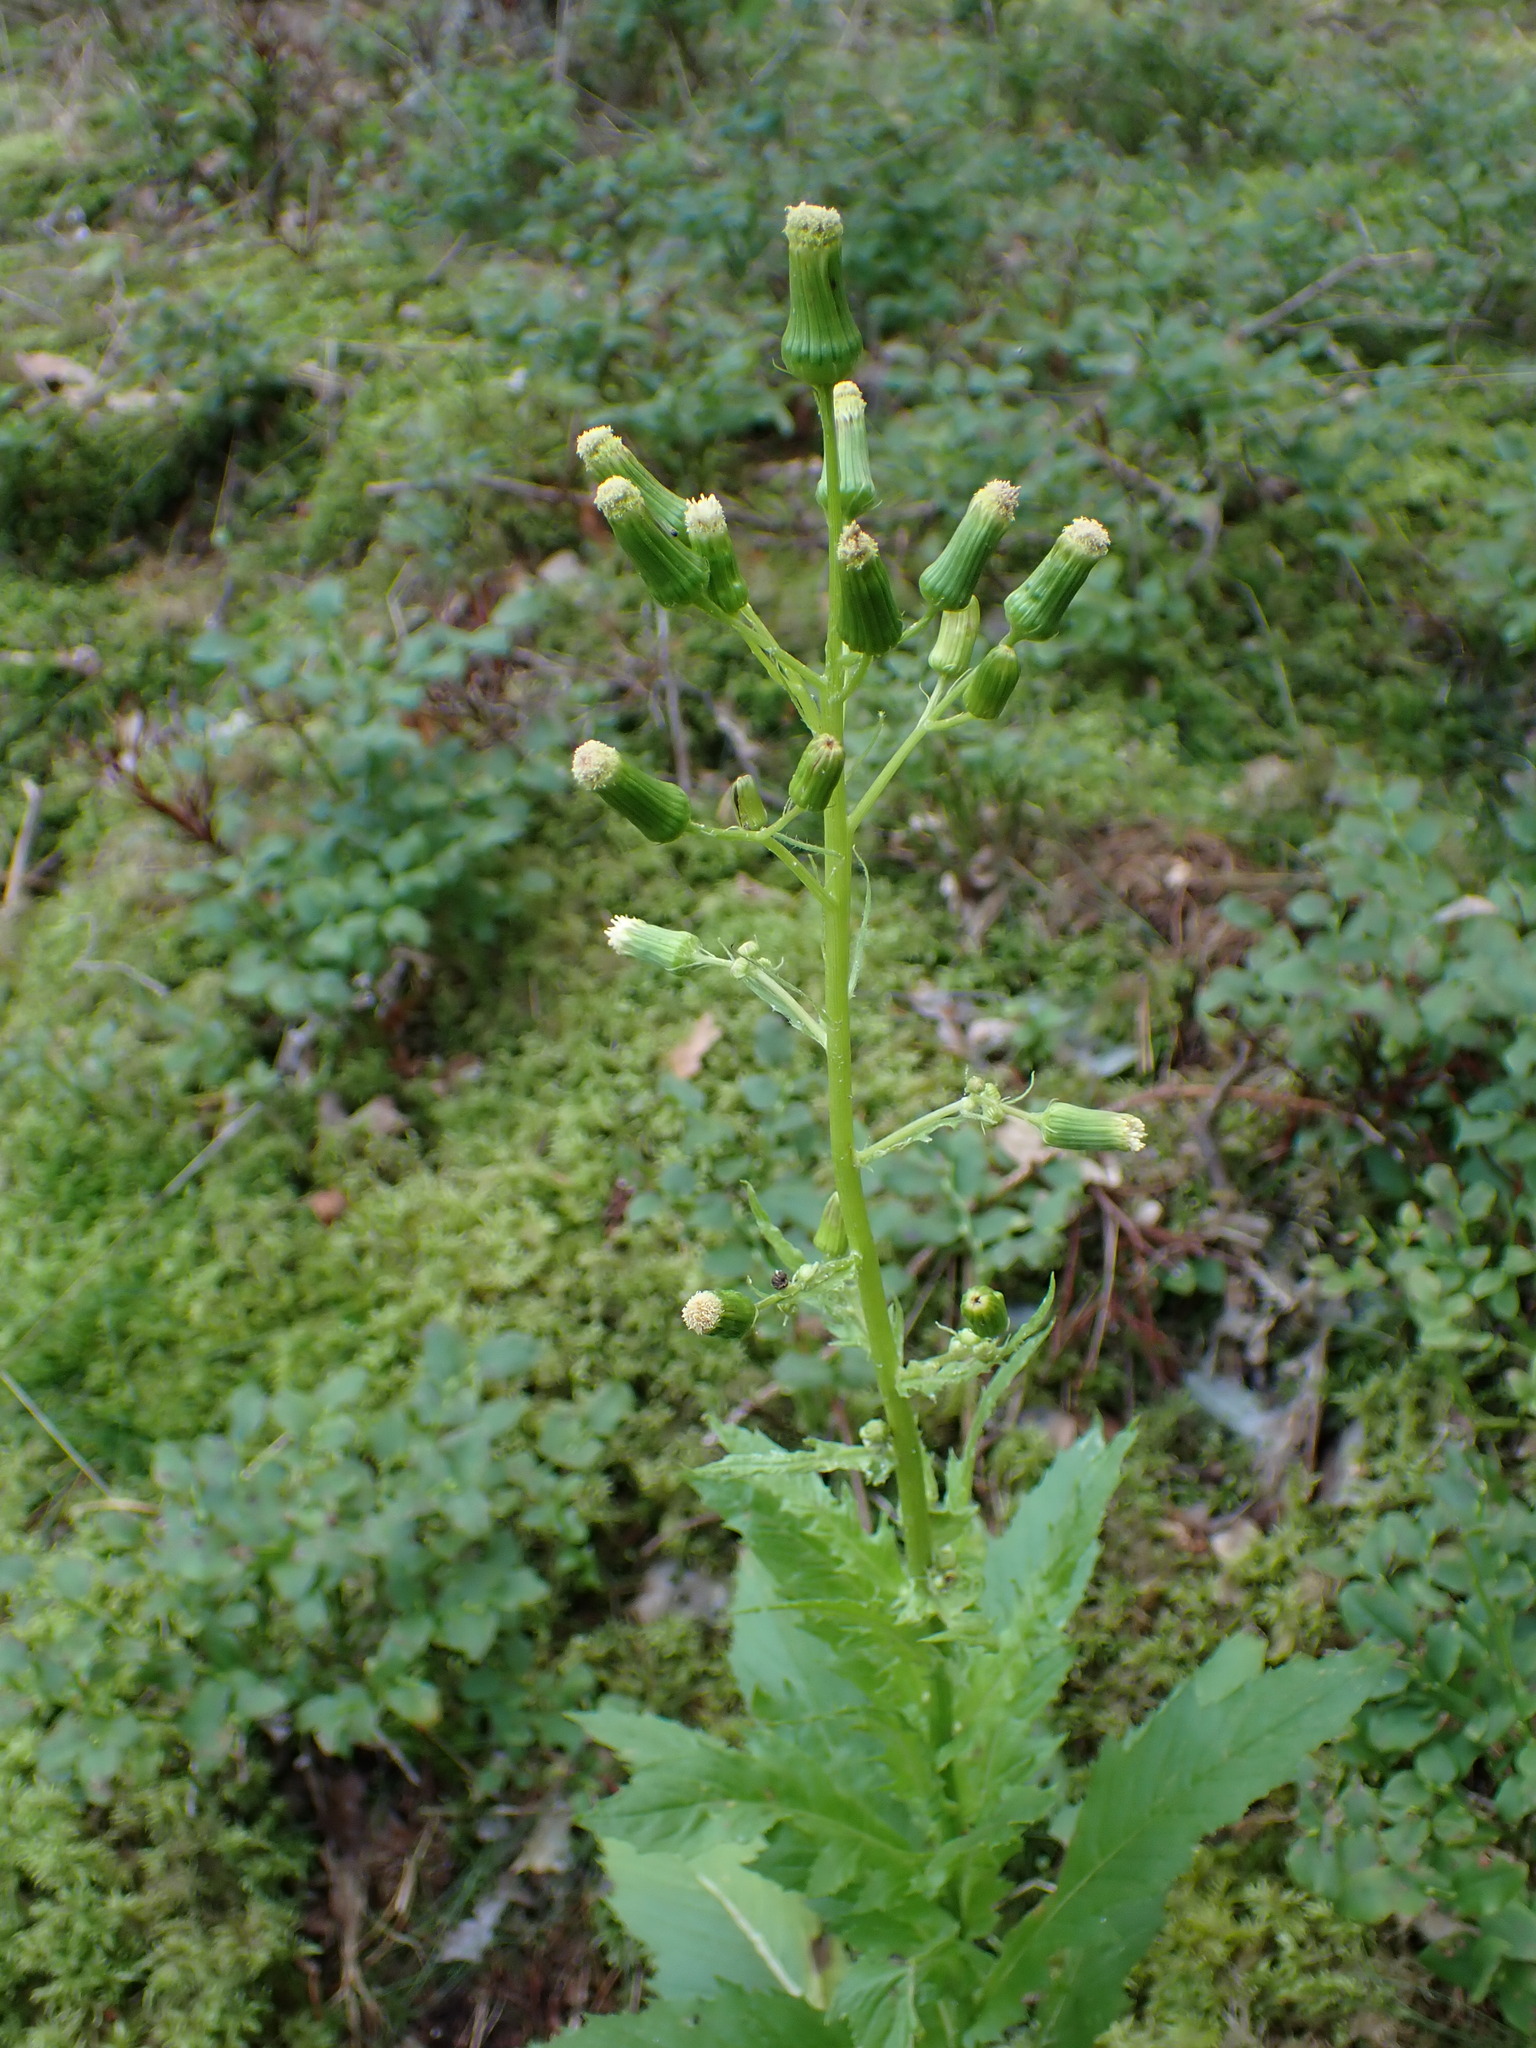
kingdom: Plantae
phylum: Tracheophyta
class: Magnoliopsida
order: Asterales
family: Asteraceae
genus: Erechtites
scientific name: Erechtites hieraciifolius
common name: American burnweed
